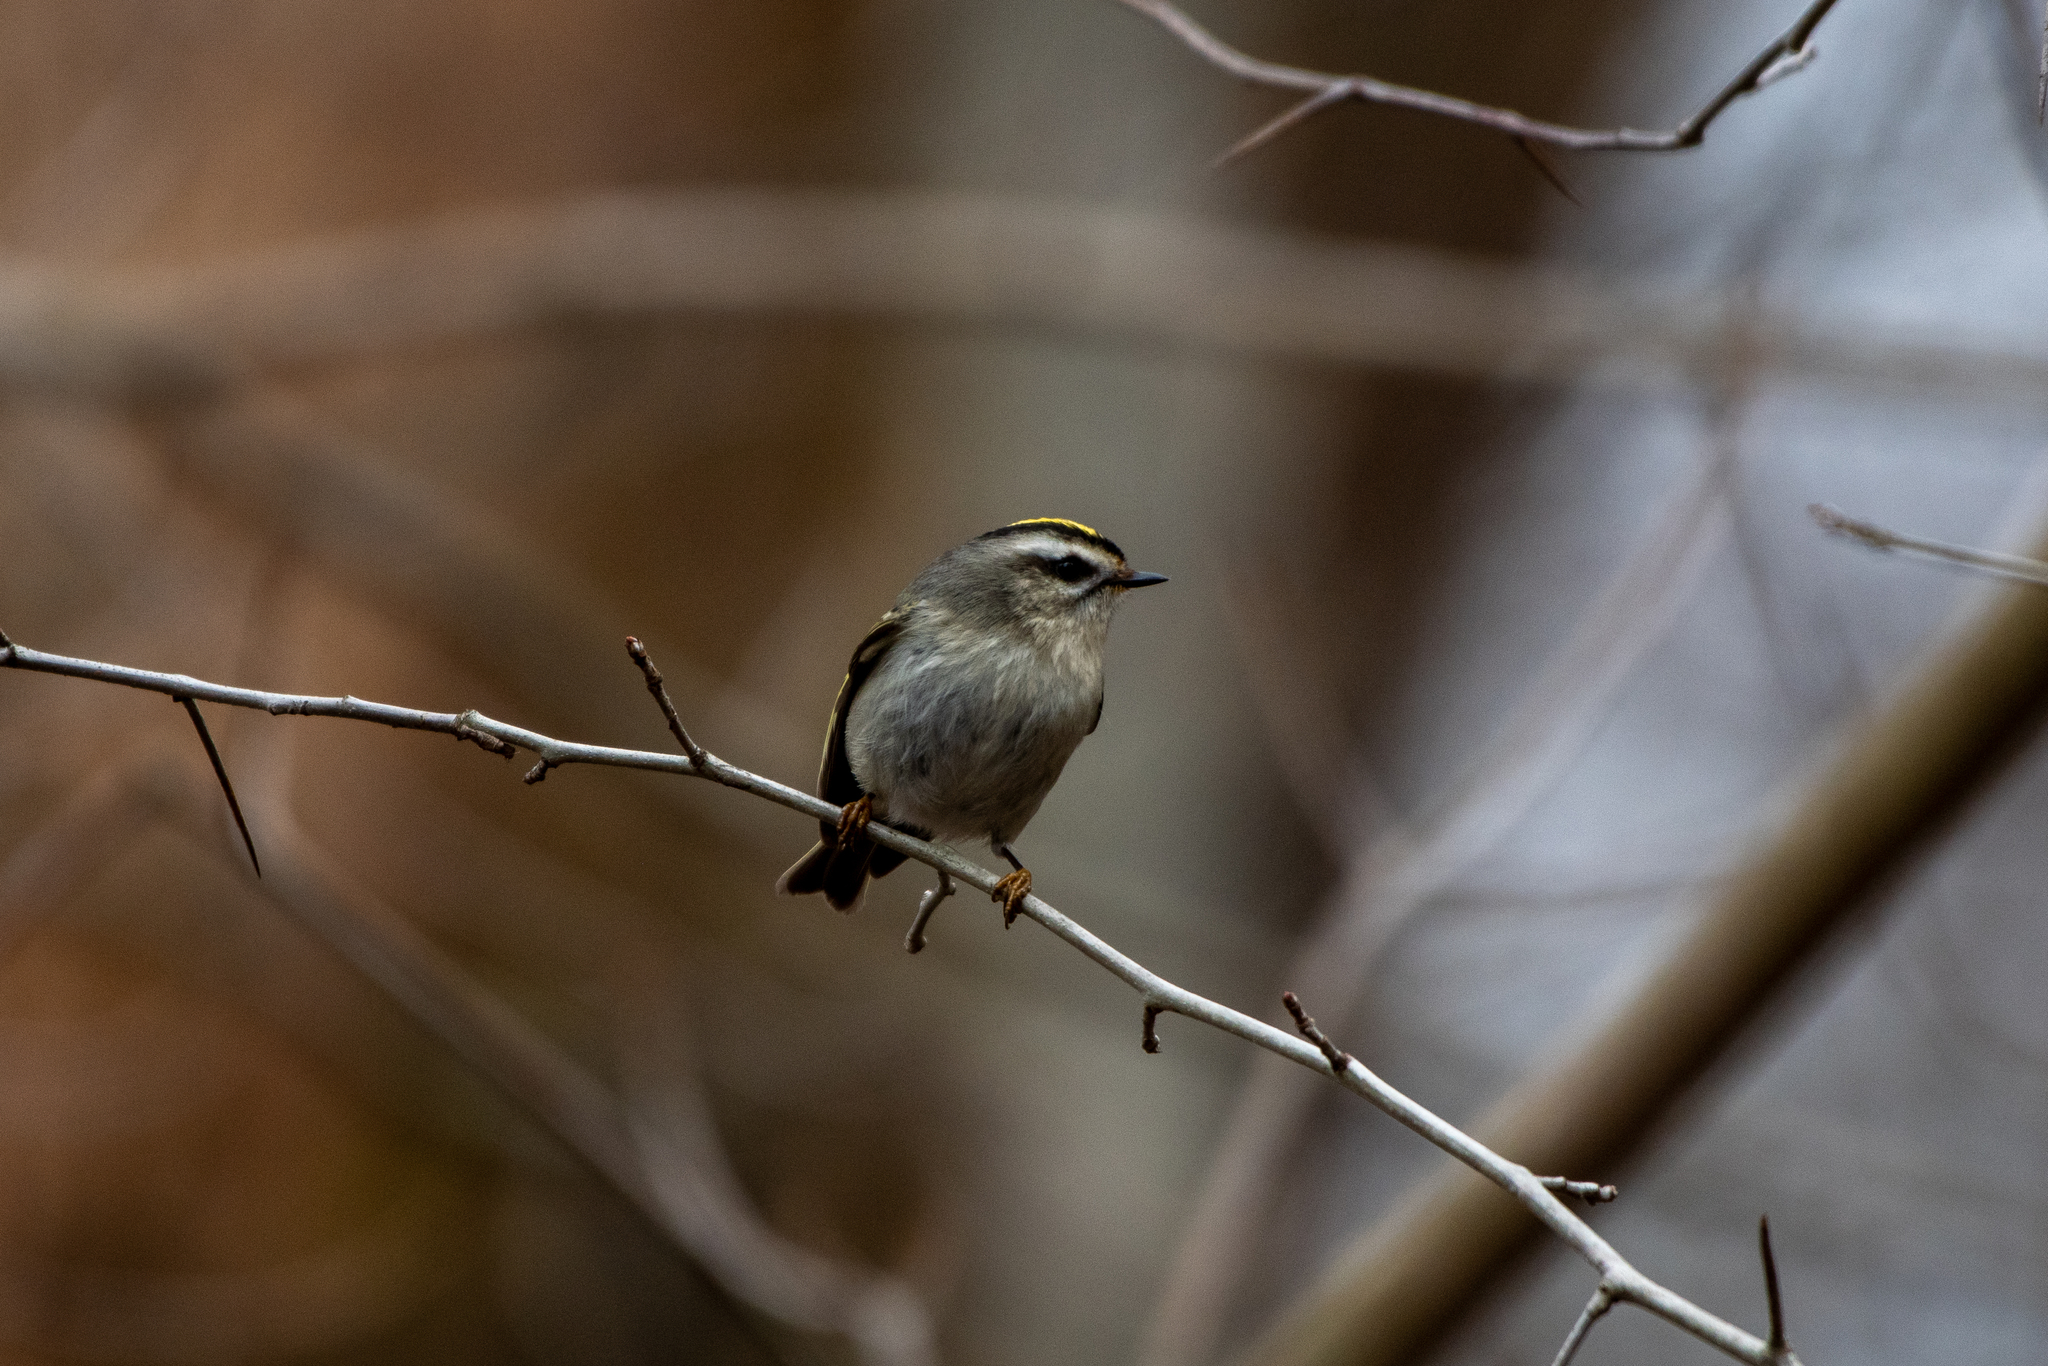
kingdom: Animalia
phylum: Chordata
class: Aves
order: Passeriformes
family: Regulidae
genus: Regulus
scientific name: Regulus satrapa
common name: Golden-crowned kinglet
